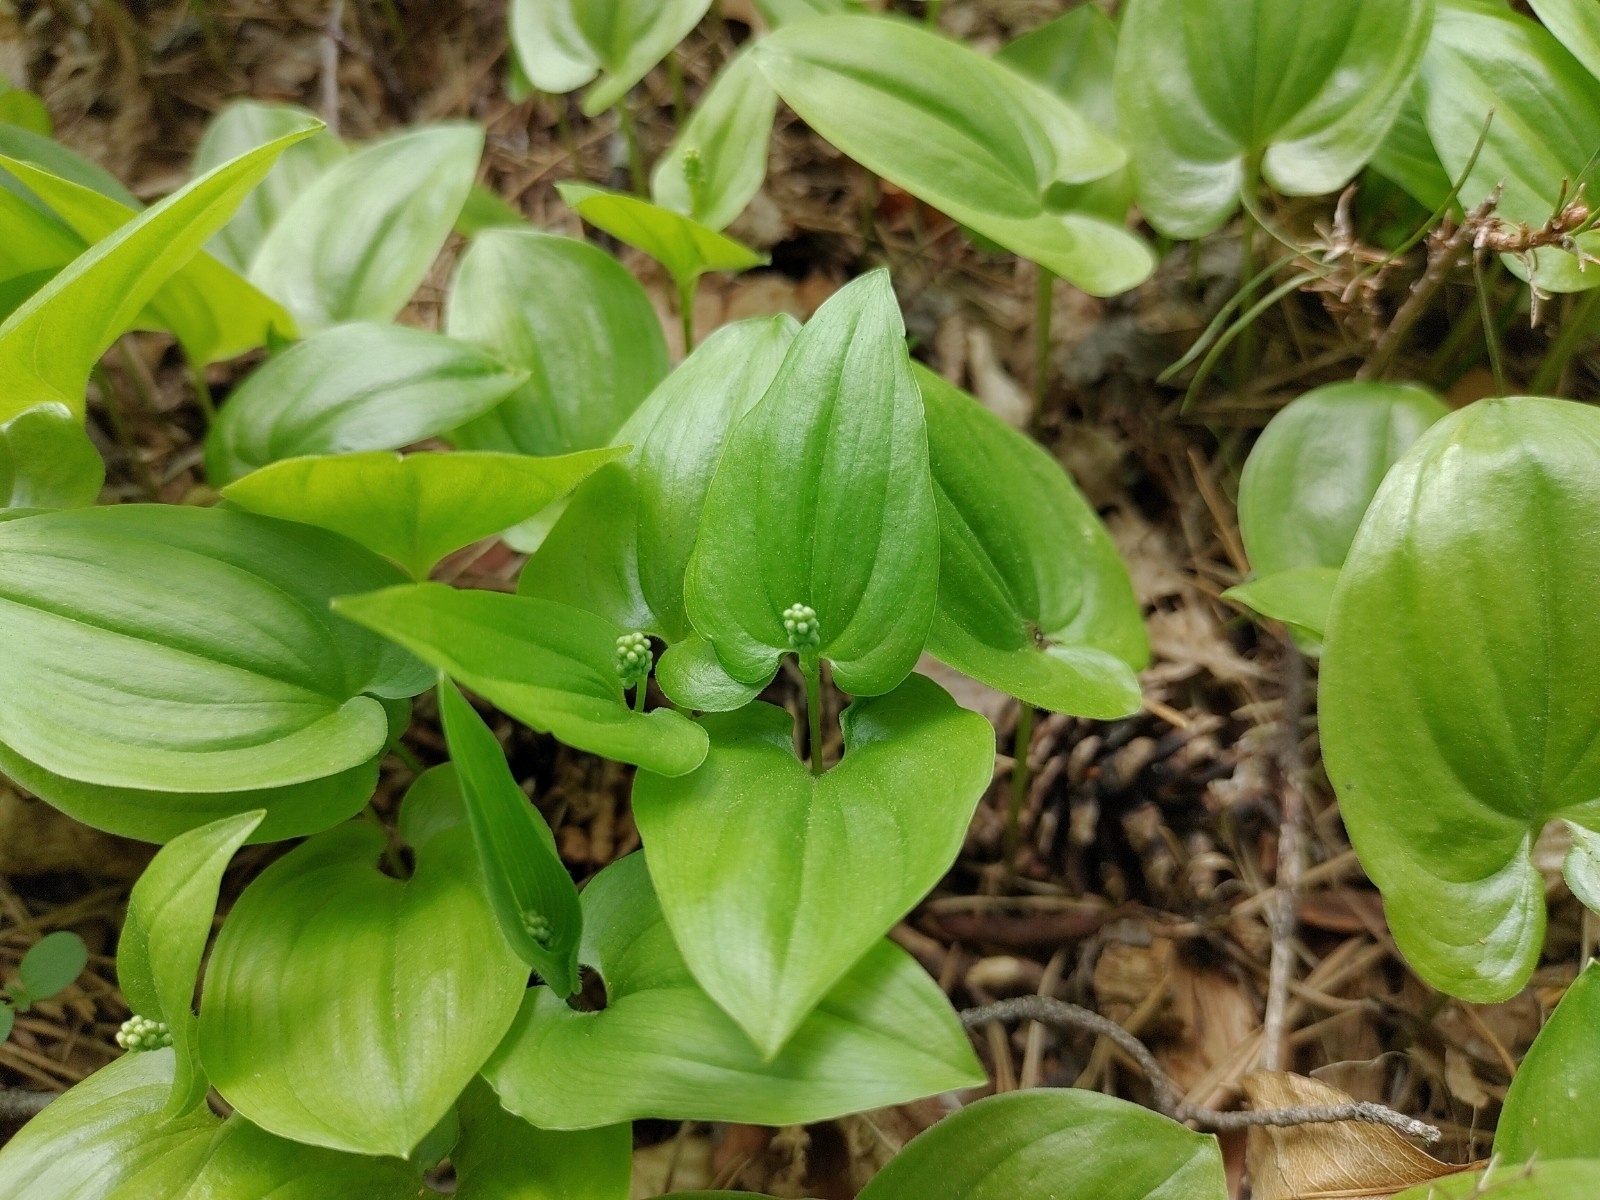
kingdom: Plantae
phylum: Tracheophyta
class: Liliopsida
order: Asparagales
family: Asparagaceae
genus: Maianthemum
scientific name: Maianthemum bifolium
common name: May lily
